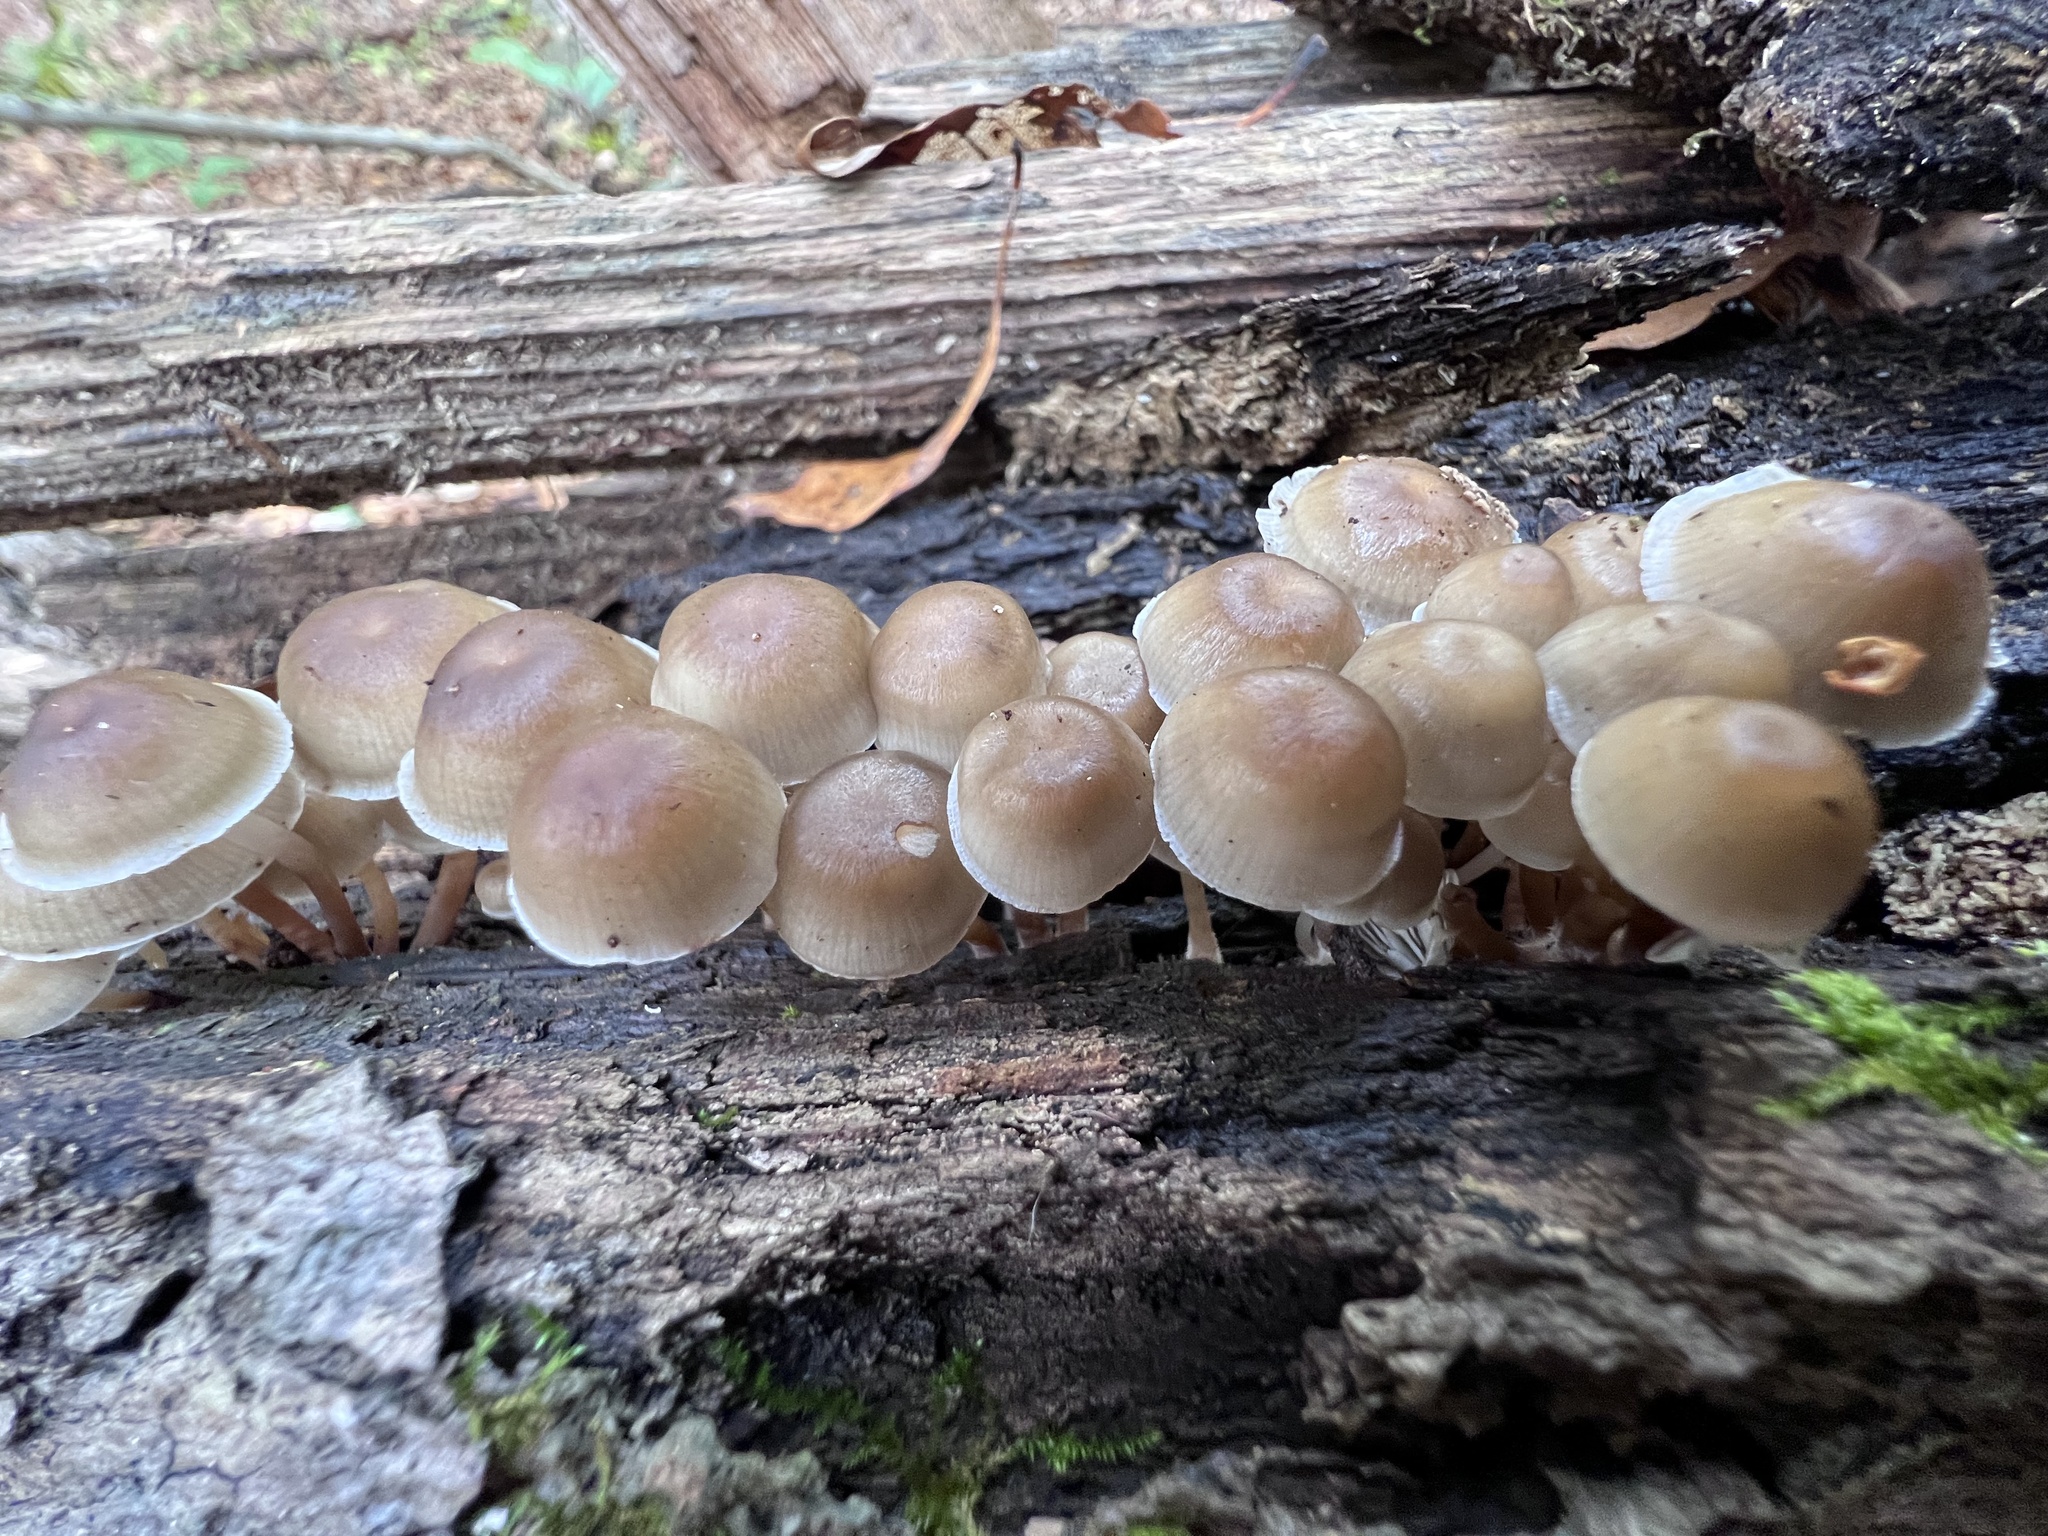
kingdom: Fungi
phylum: Basidiomycota
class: Agaricomycetes
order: Agaricales
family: Mycenaceae
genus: Mycena
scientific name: Mycena inclinata
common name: Clustered bonnet
